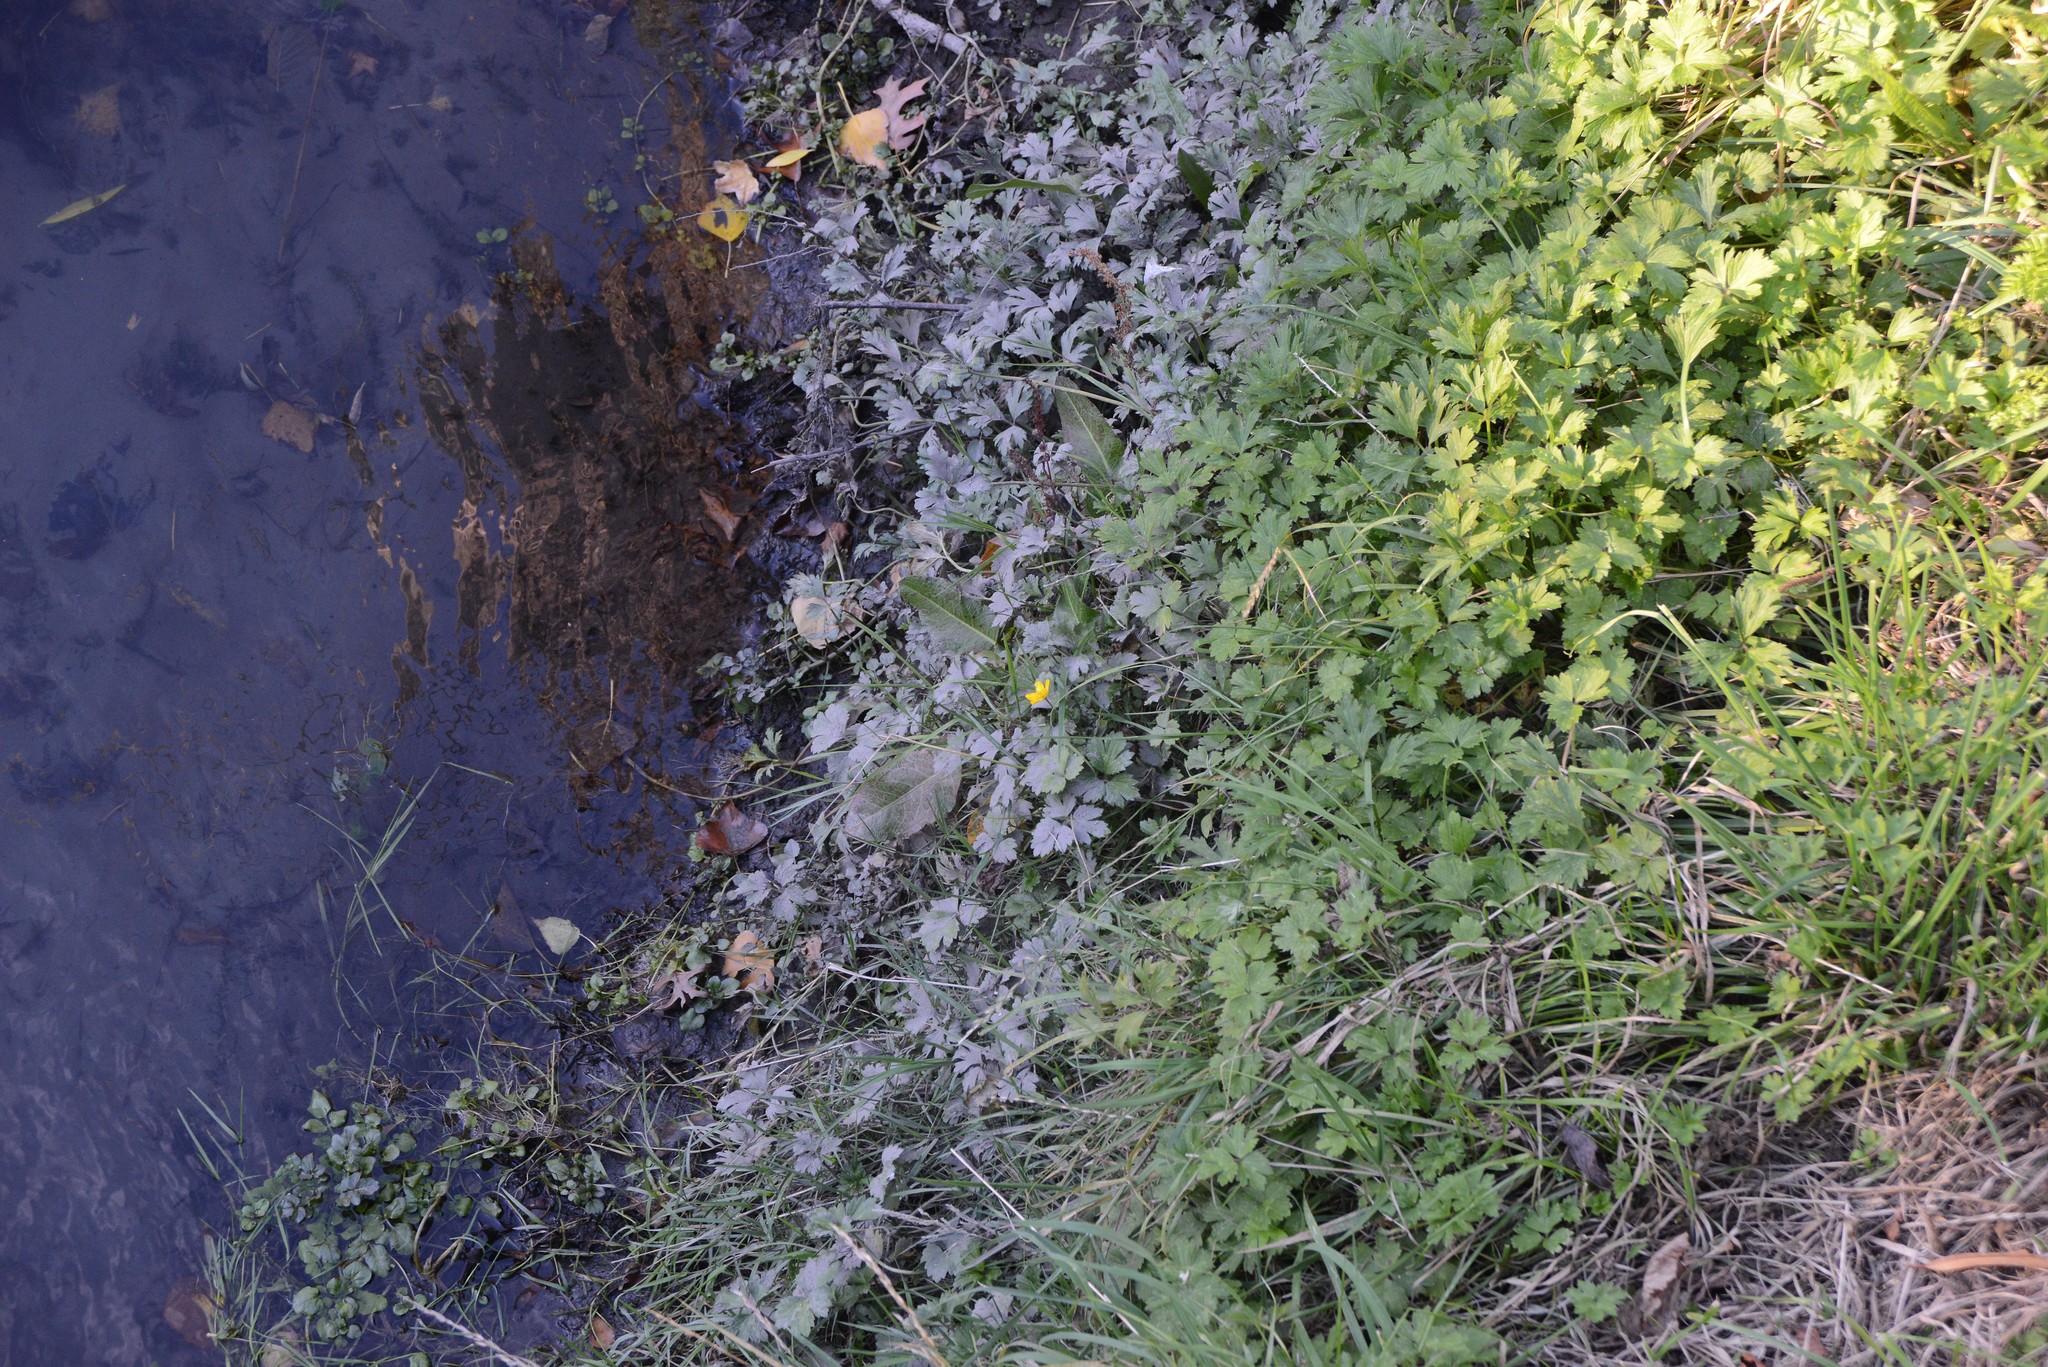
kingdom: Plantae
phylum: Tracheophyta
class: Magnoliopsida
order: Ranunculales
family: Ranunculaceae
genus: Ranunculus
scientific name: Ranunculus repens
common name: Creeping buttercup
